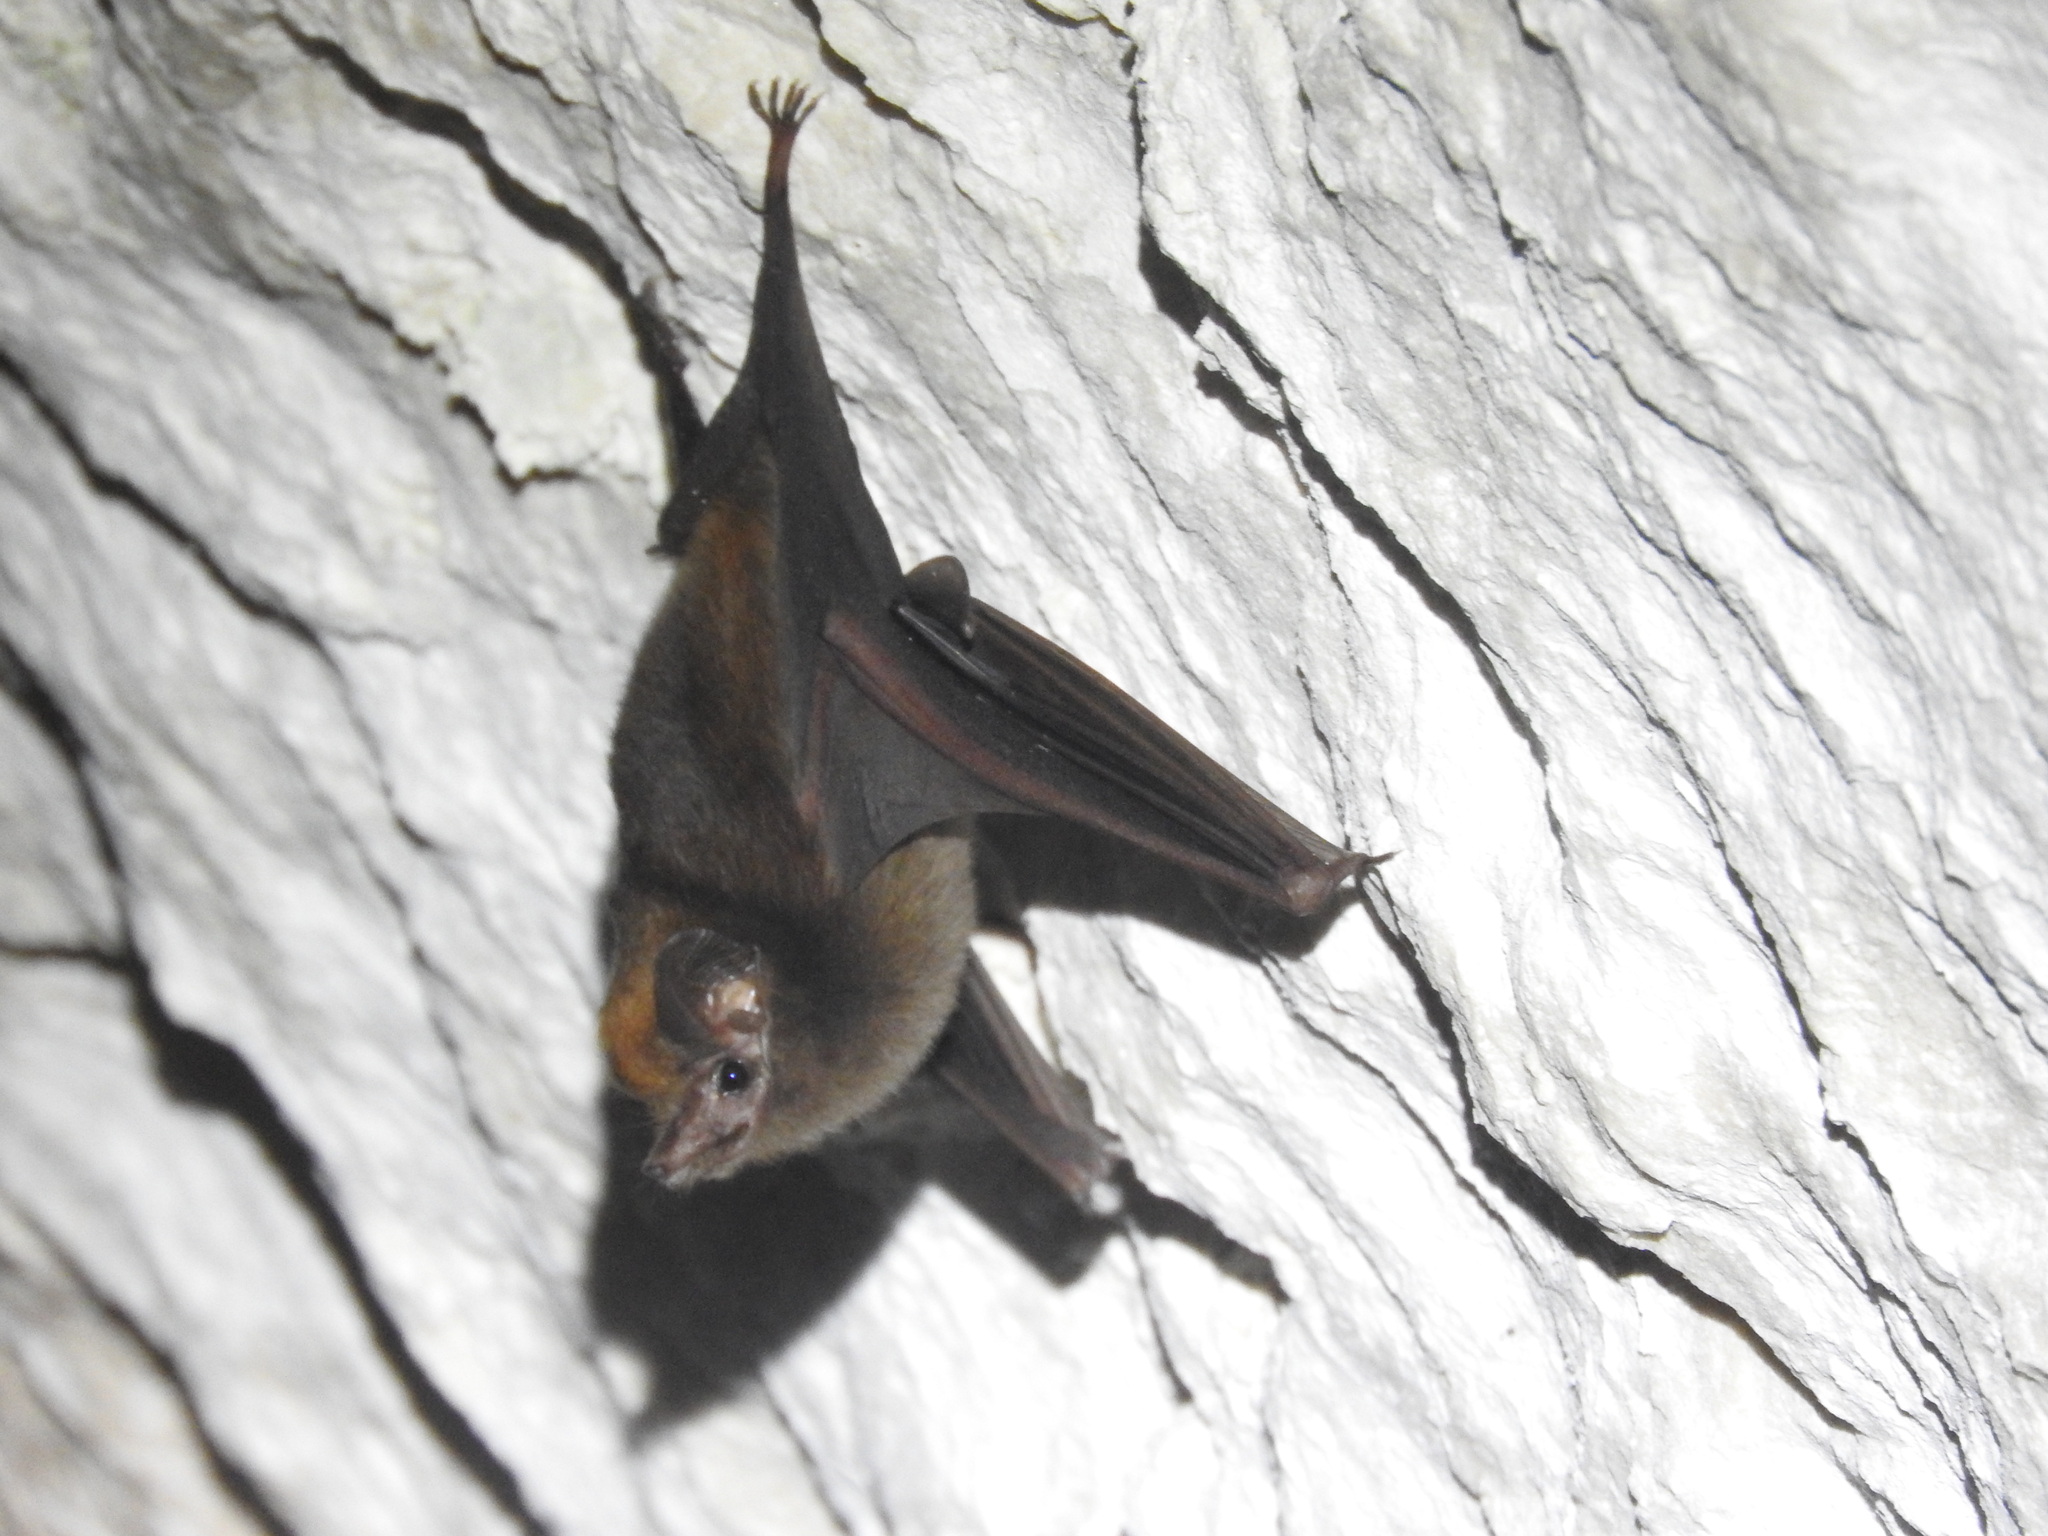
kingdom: Animalia
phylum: Chordata
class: Mammalia
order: Chiroptera
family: Emballonuridae
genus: Peropteryx
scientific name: Peropteryx macrotis
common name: Lesser dog-like bat
